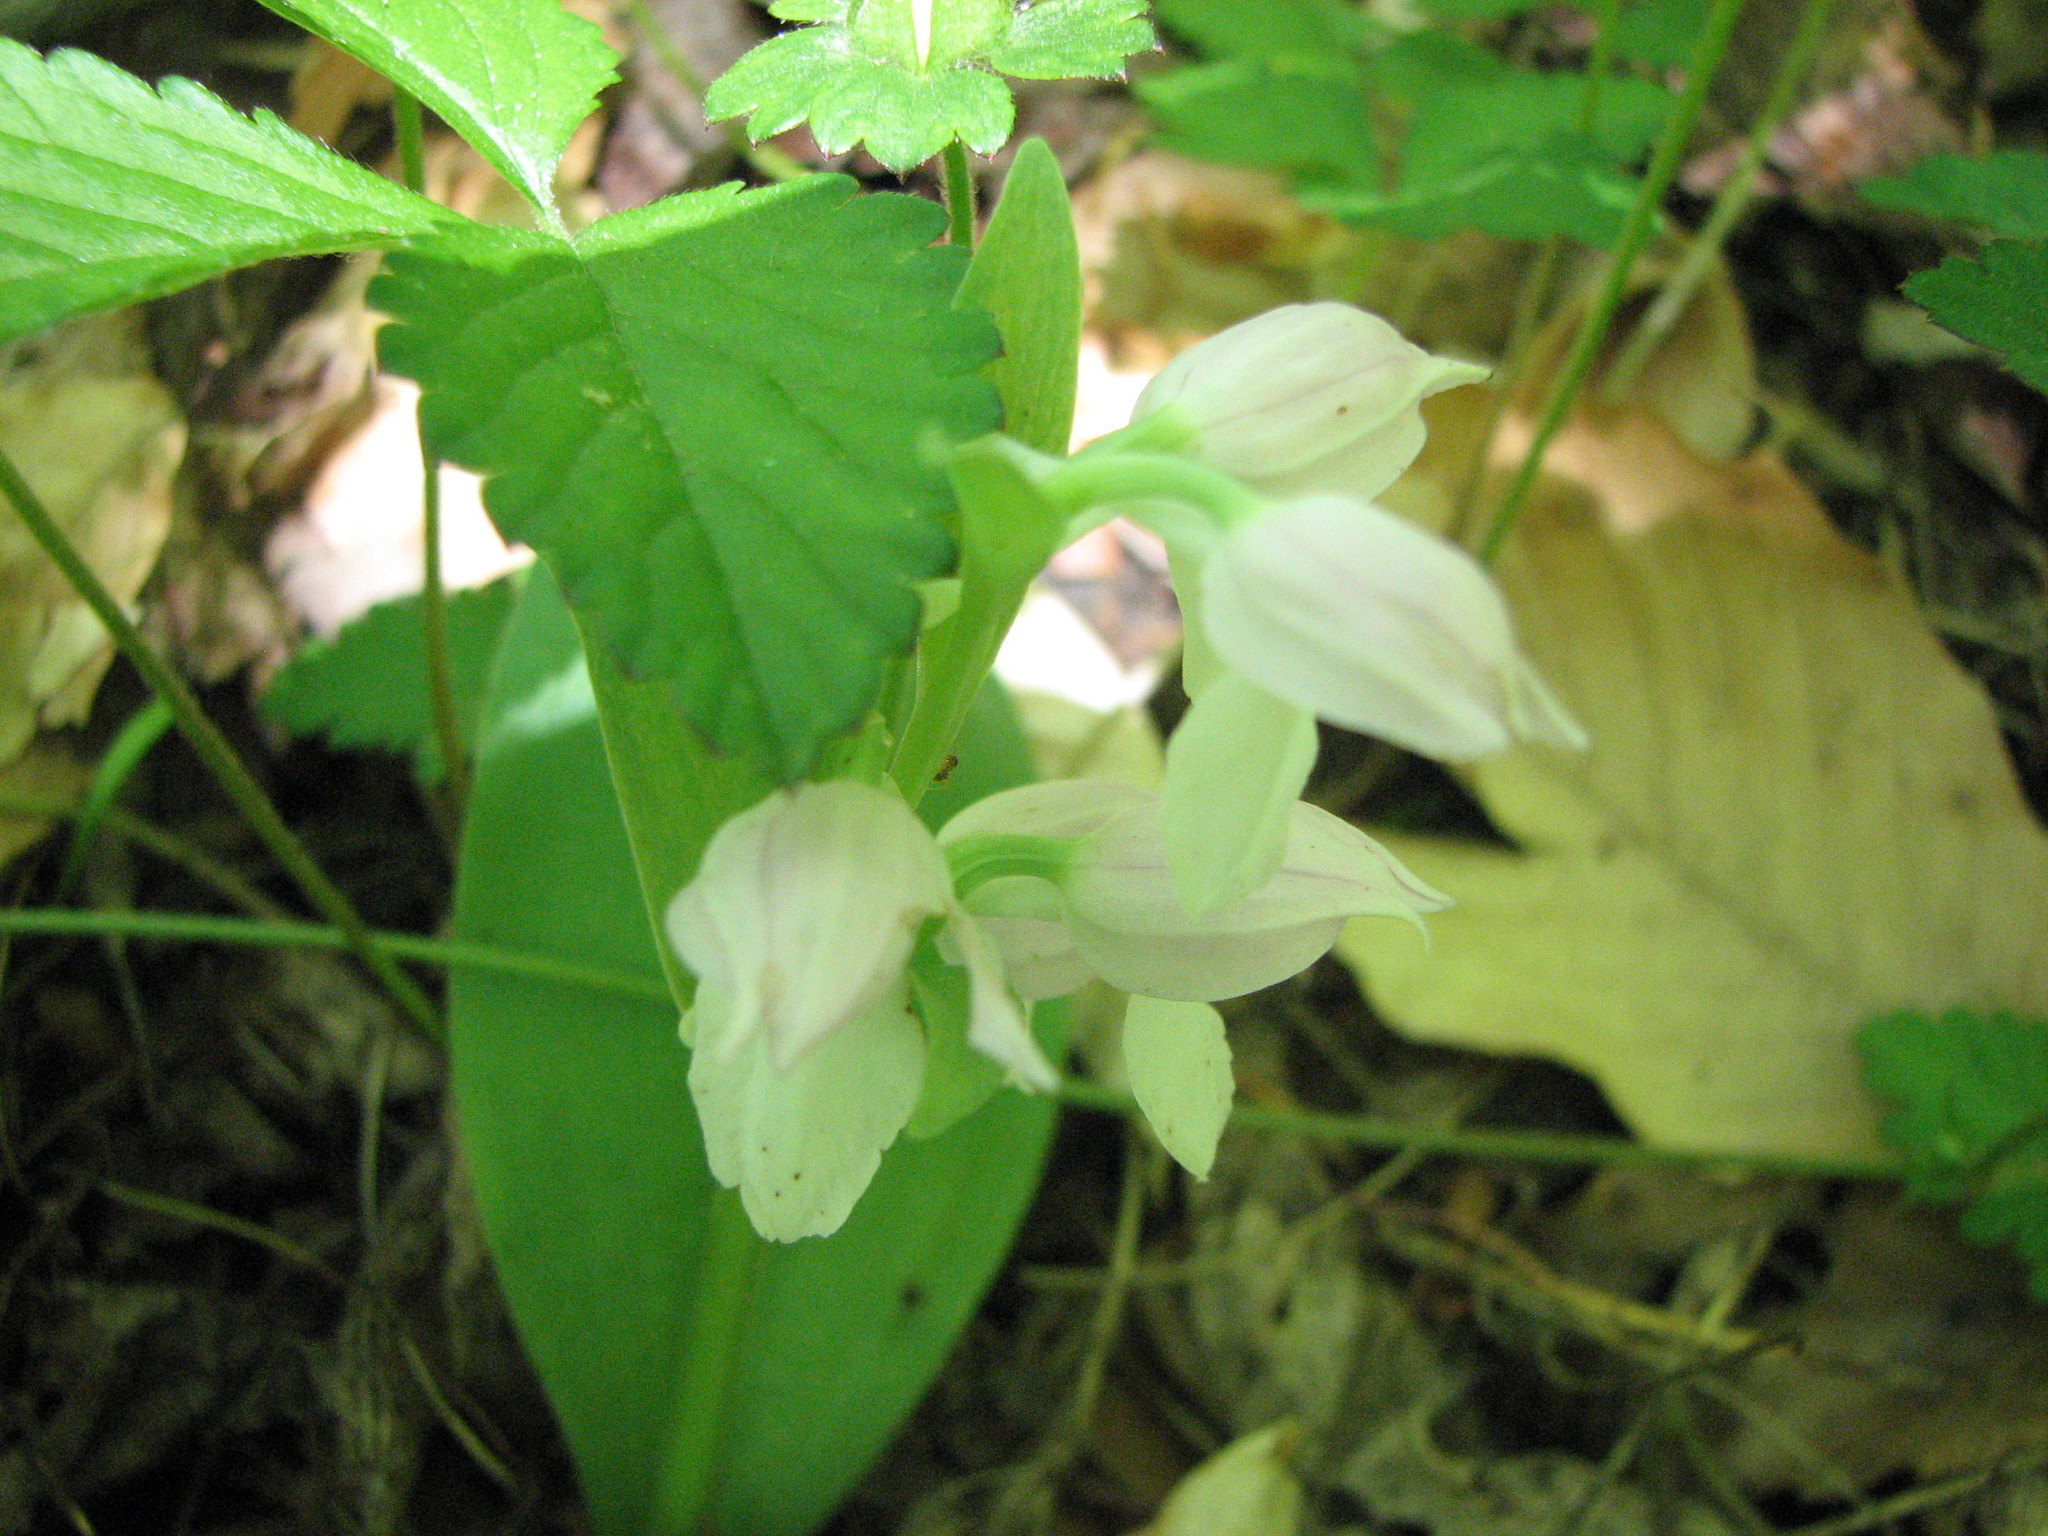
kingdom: Plantae
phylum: Tracheophyta
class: Liliopsida
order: Asparagales
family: Orchidaceae
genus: Galearis
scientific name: Galearis spectabilis
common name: Purple-hooded orchis
